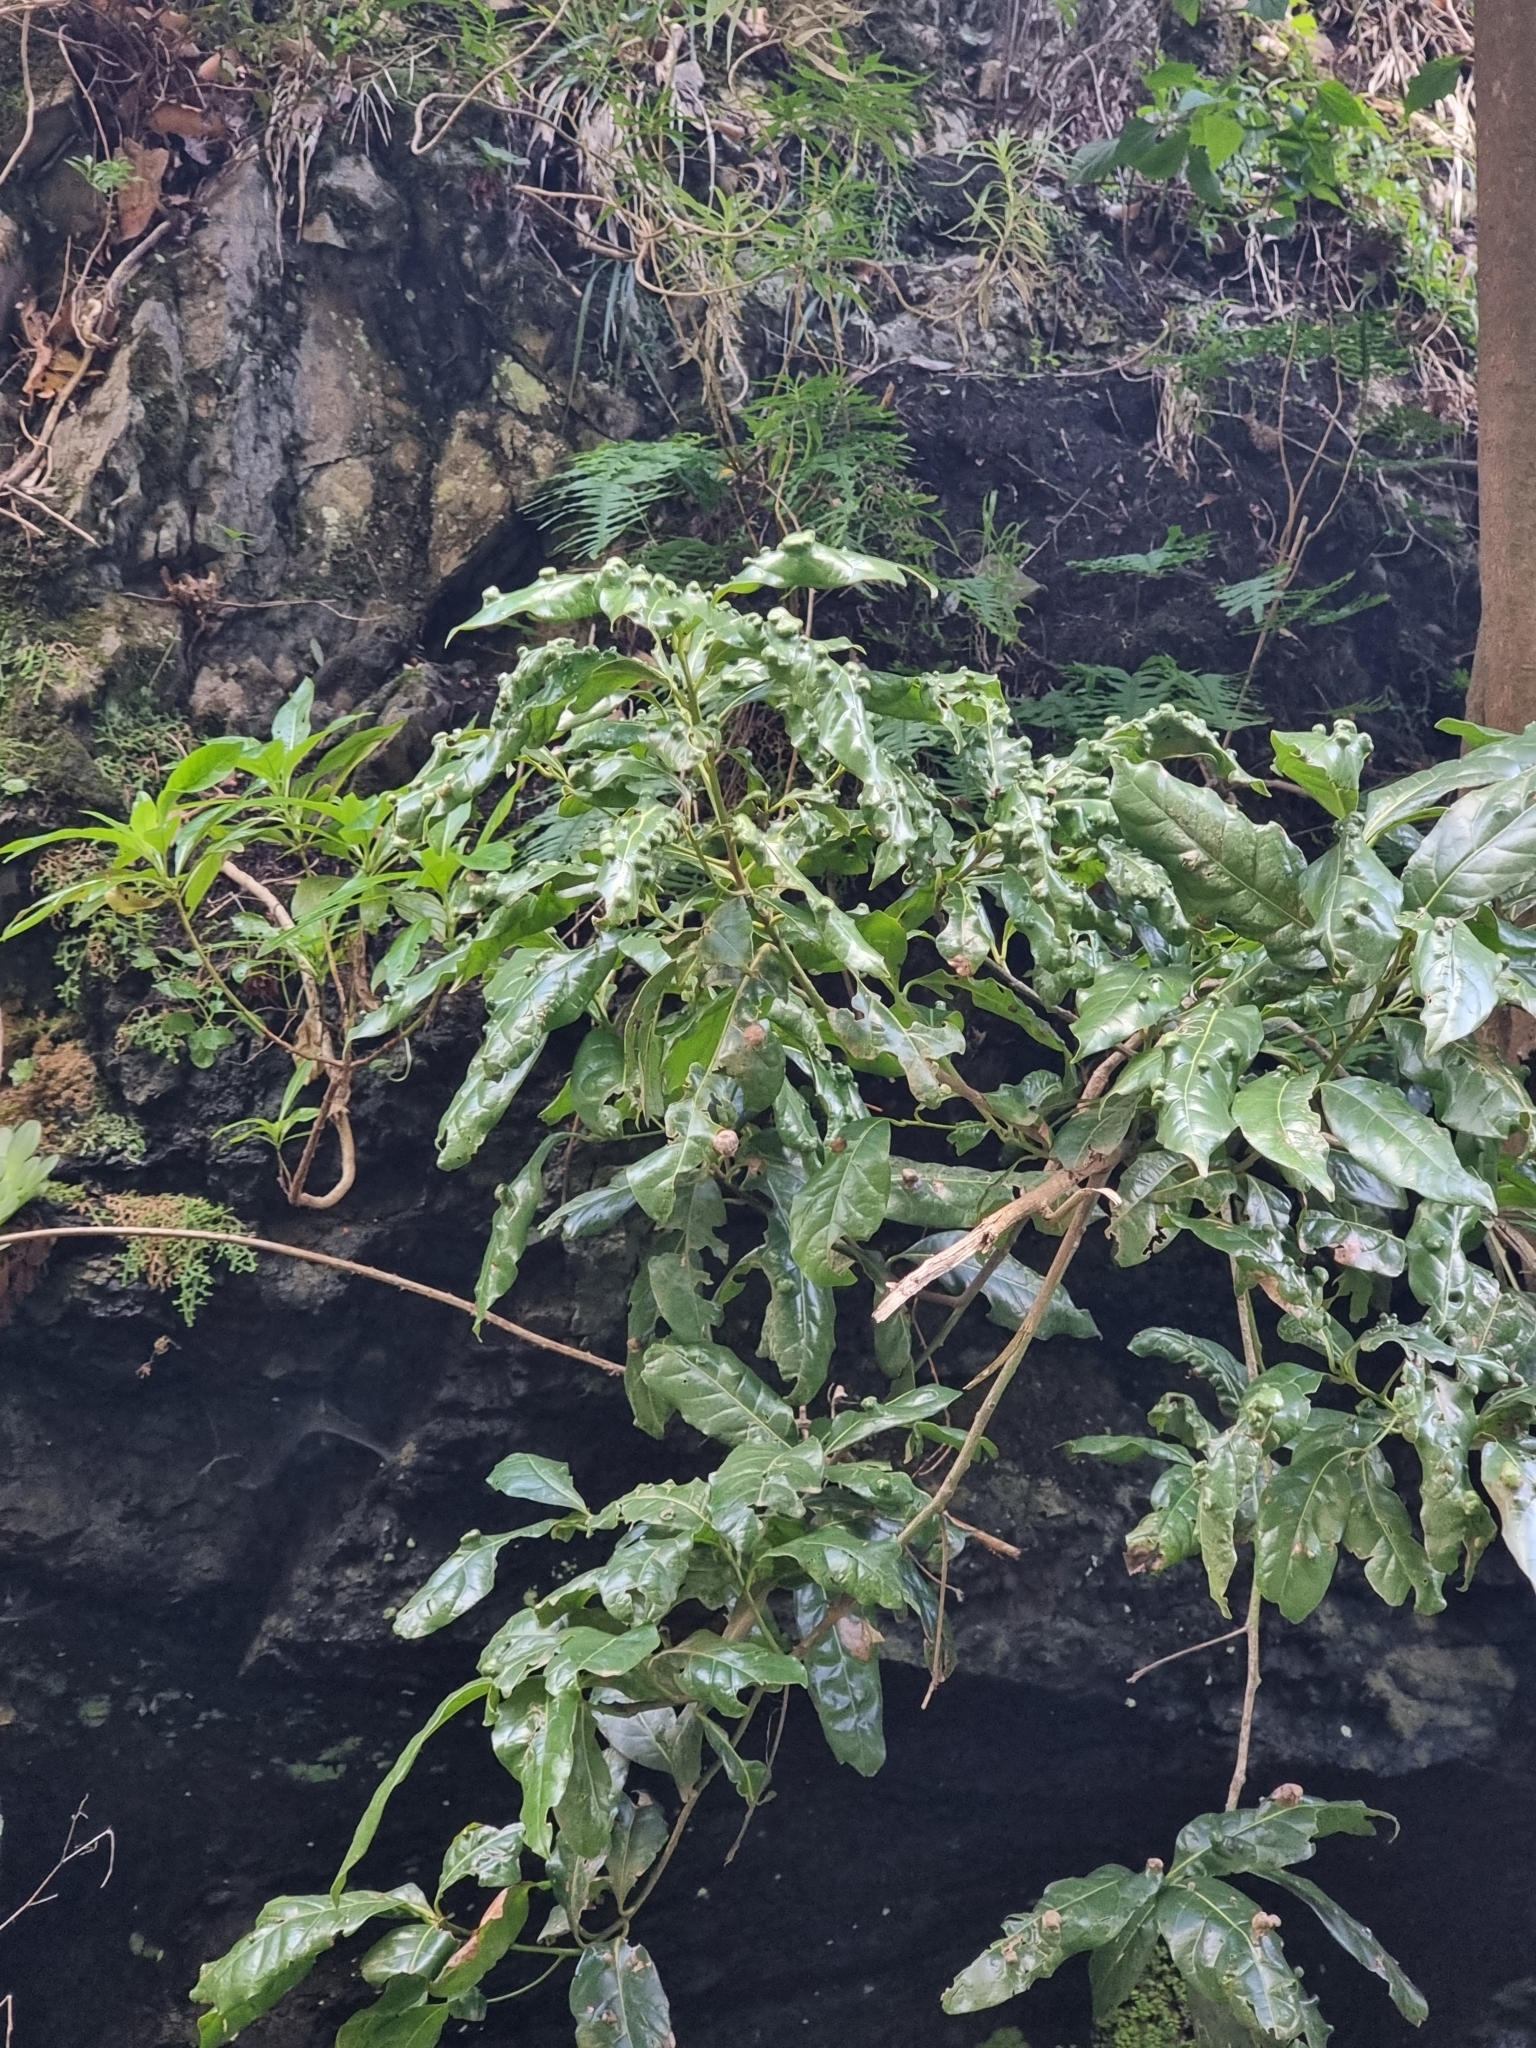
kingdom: Plantae
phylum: Tracheophyta
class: Magnoliopsida
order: Laurales
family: Lauraceae
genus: Apollonias
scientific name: Apollonias barbujana
